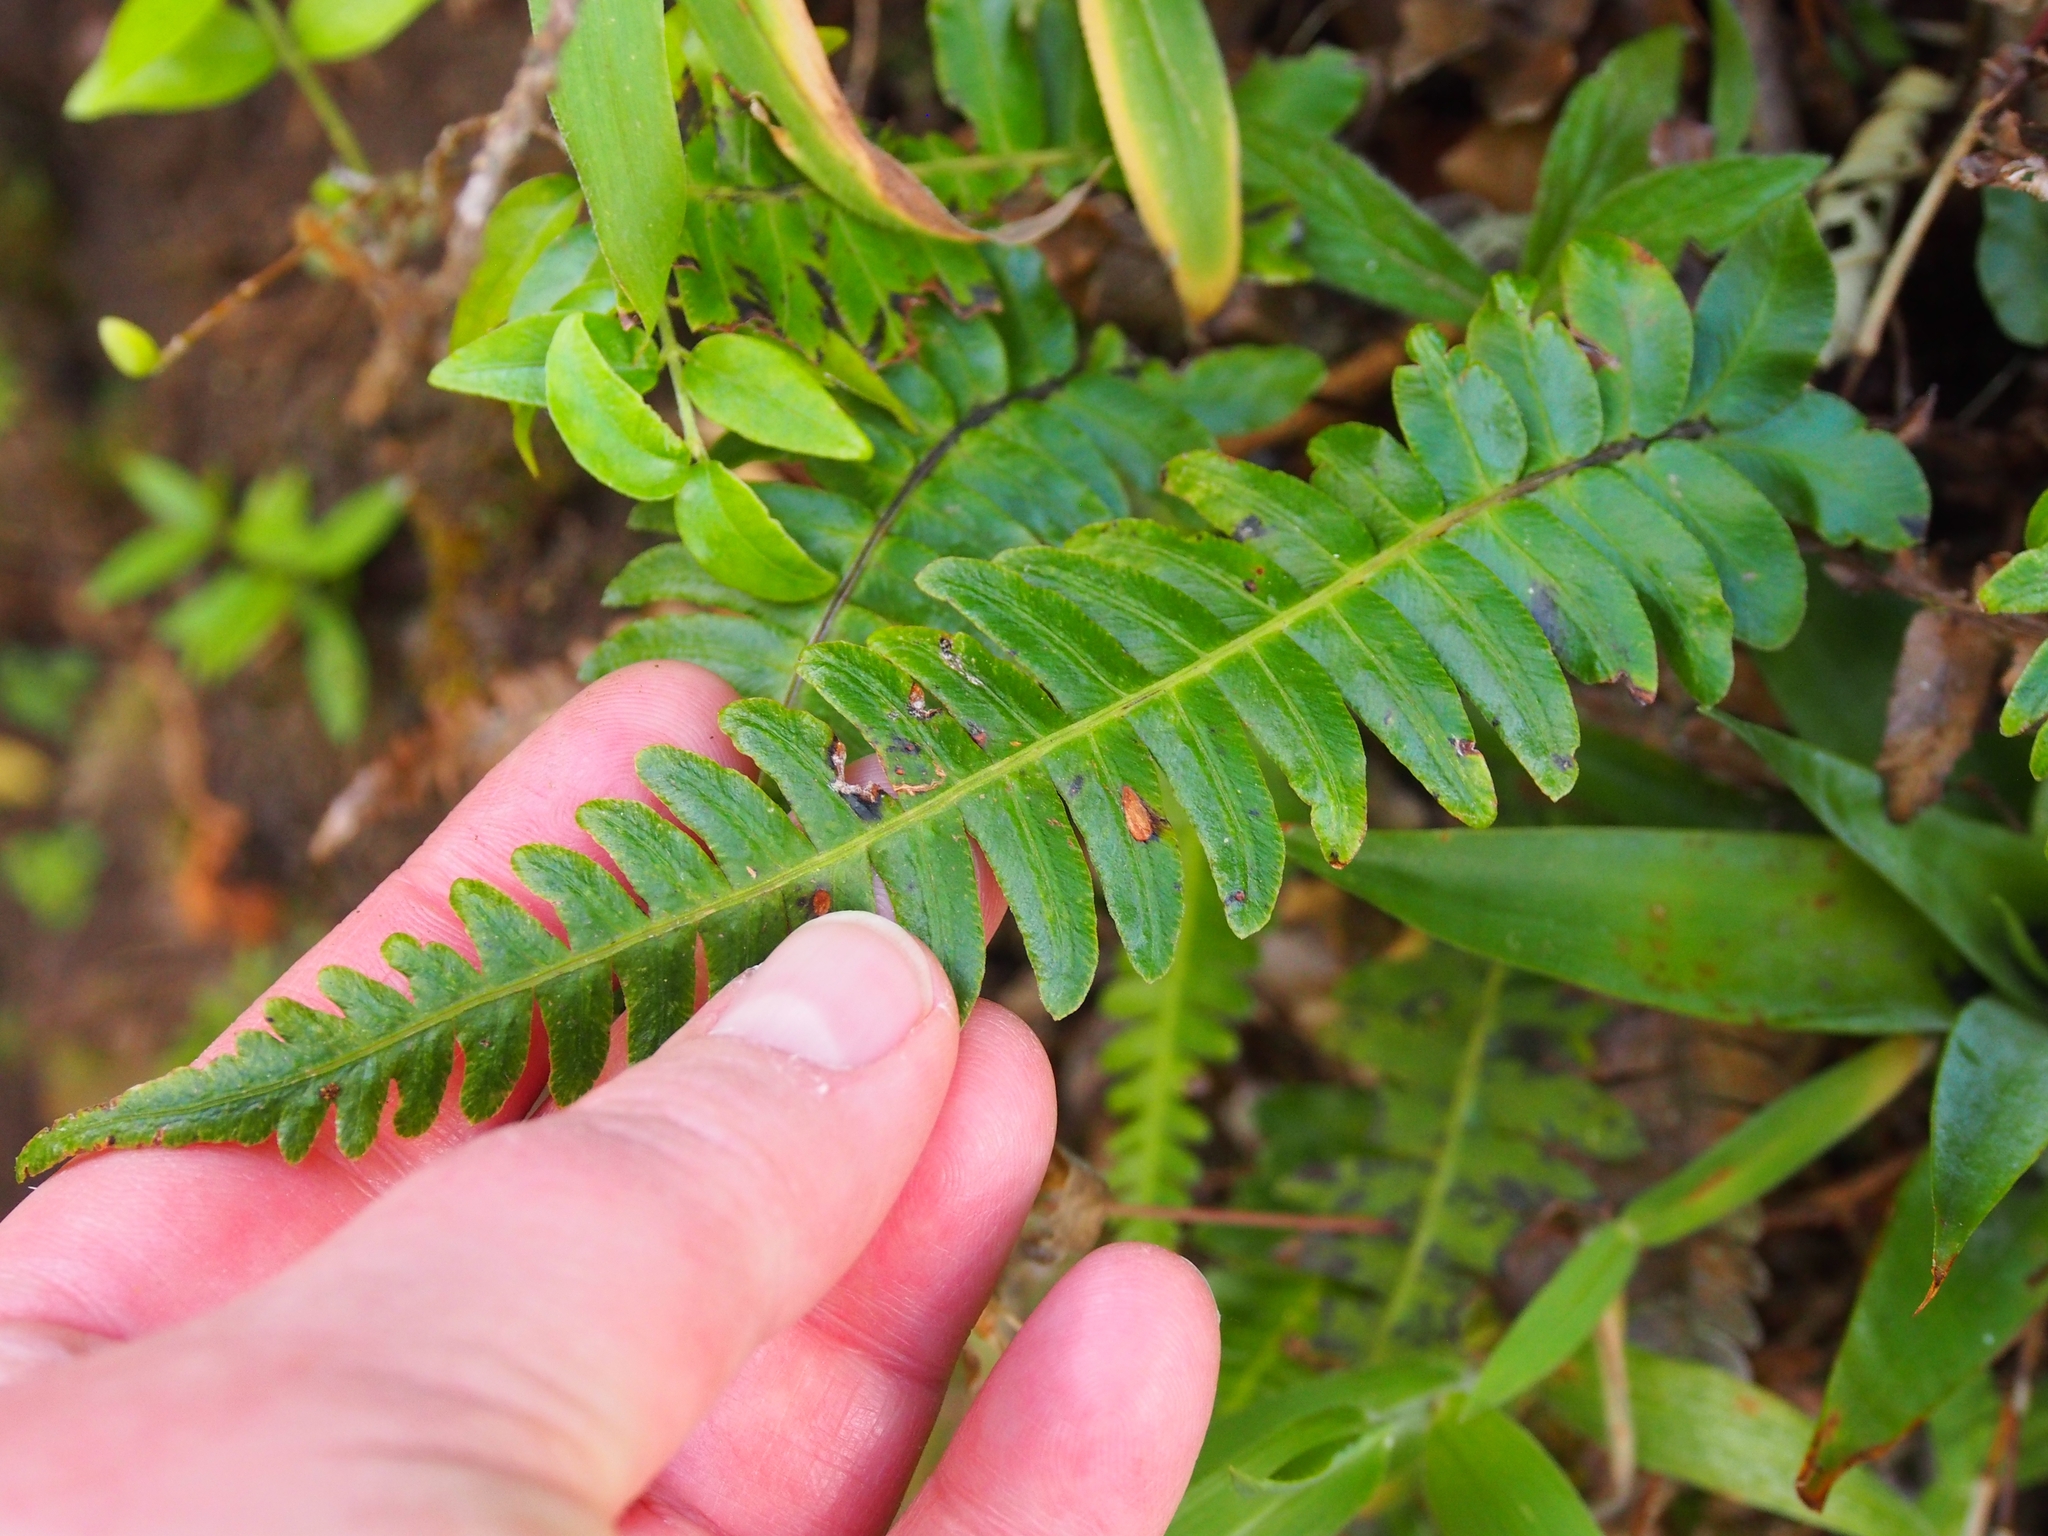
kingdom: Plantae
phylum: Tracheophyta
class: Polypodiopsida
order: Polypodiales
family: Blechnaceae
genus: Blechnum
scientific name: Blechnum appendiculatum
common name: Palm fern
